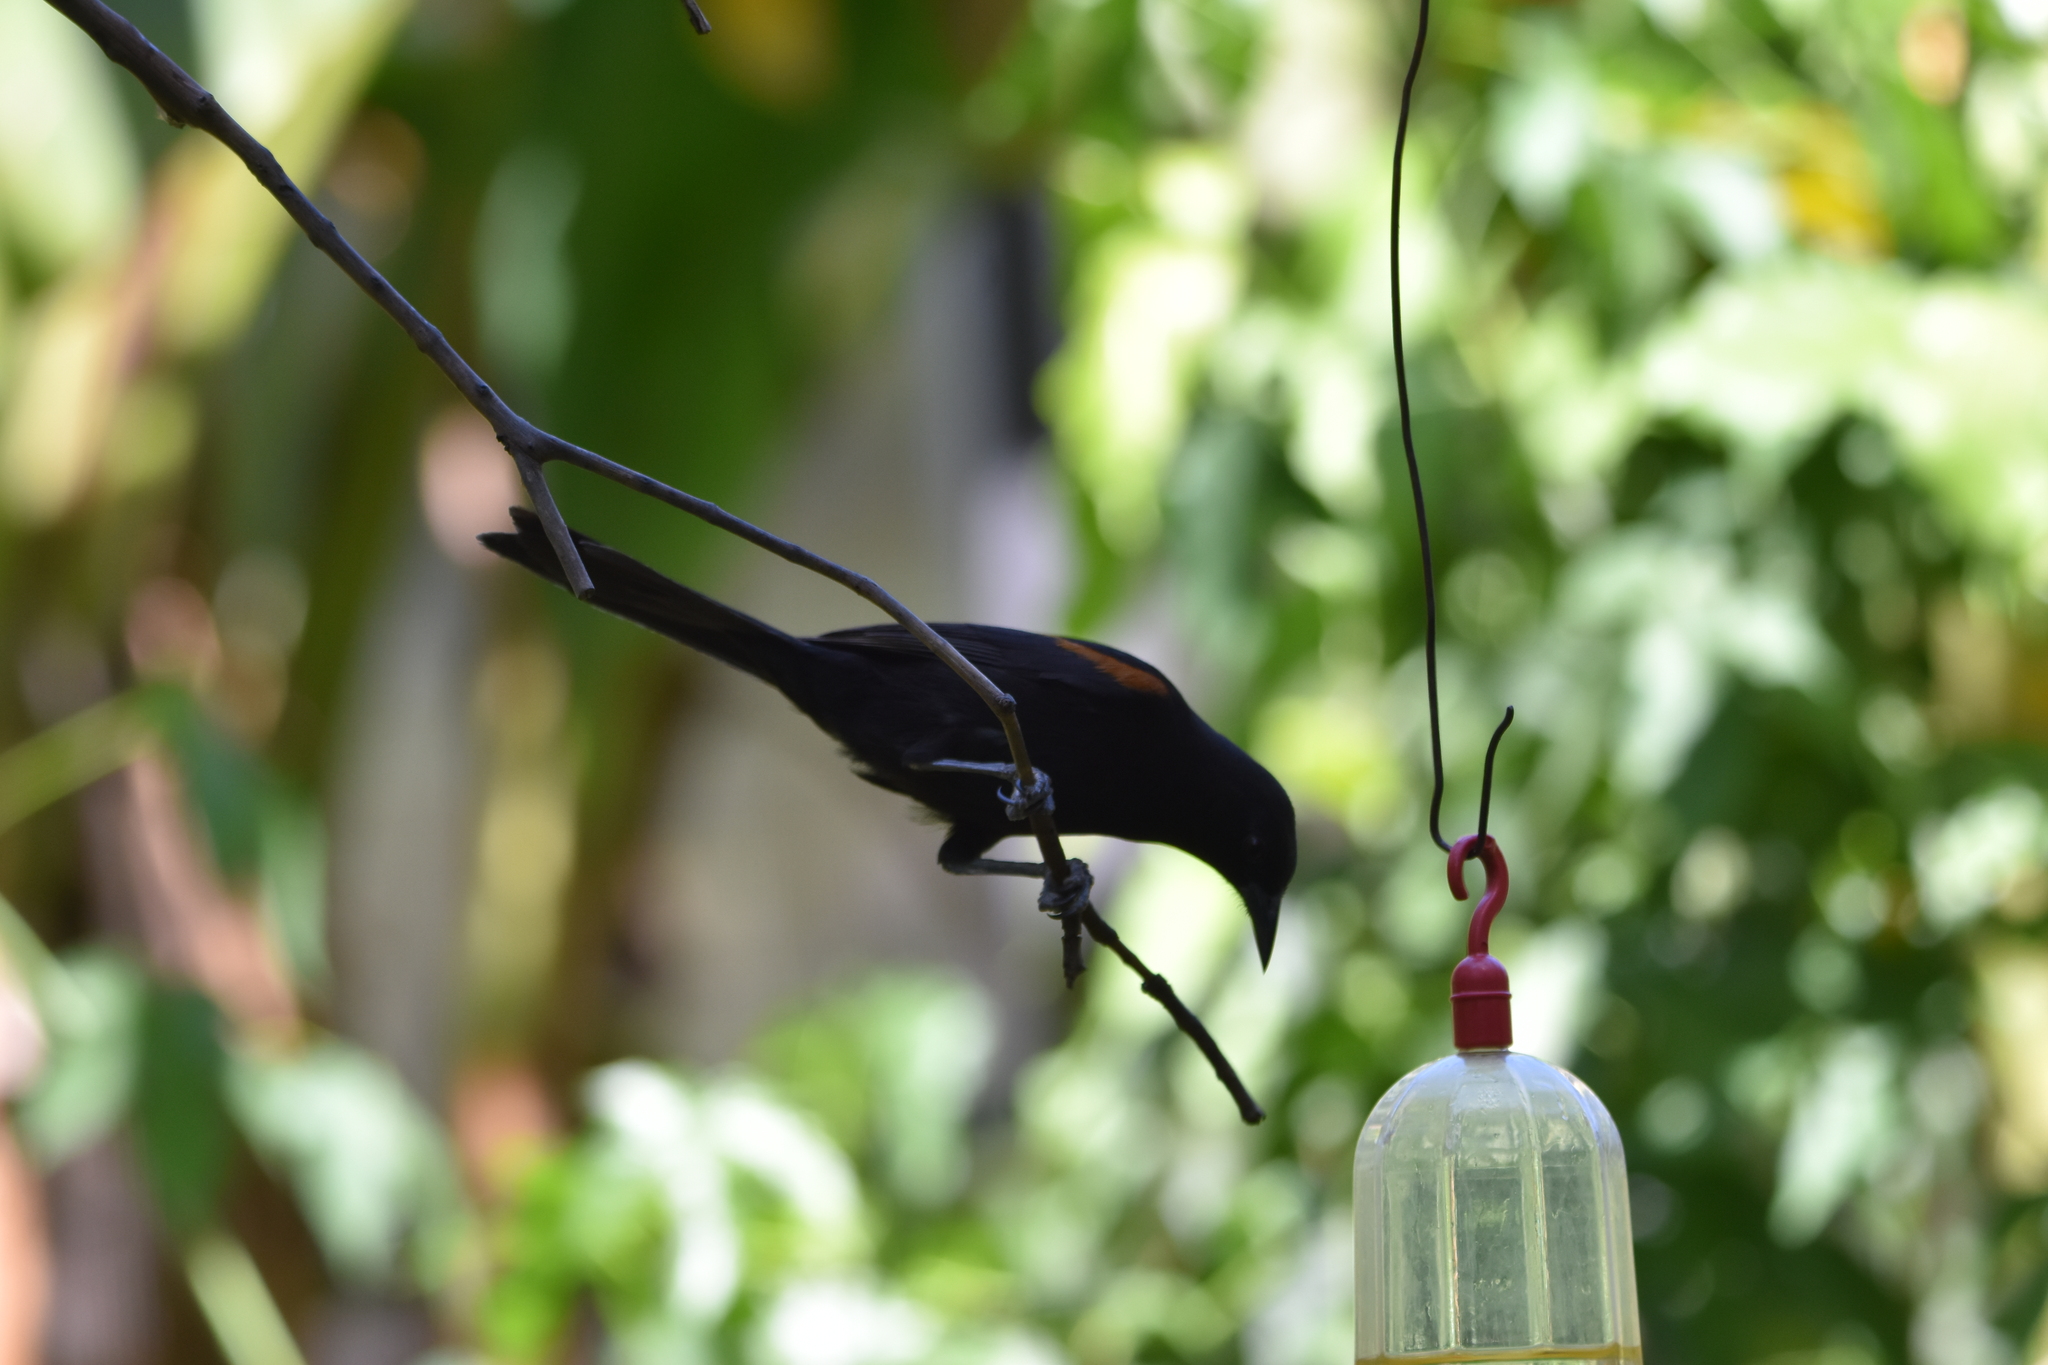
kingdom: Animalia
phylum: Chordata
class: Aves
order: Passeriformes
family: Icteridae
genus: Icterus
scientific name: Icterus cayanensis
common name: Epaulet oriole
